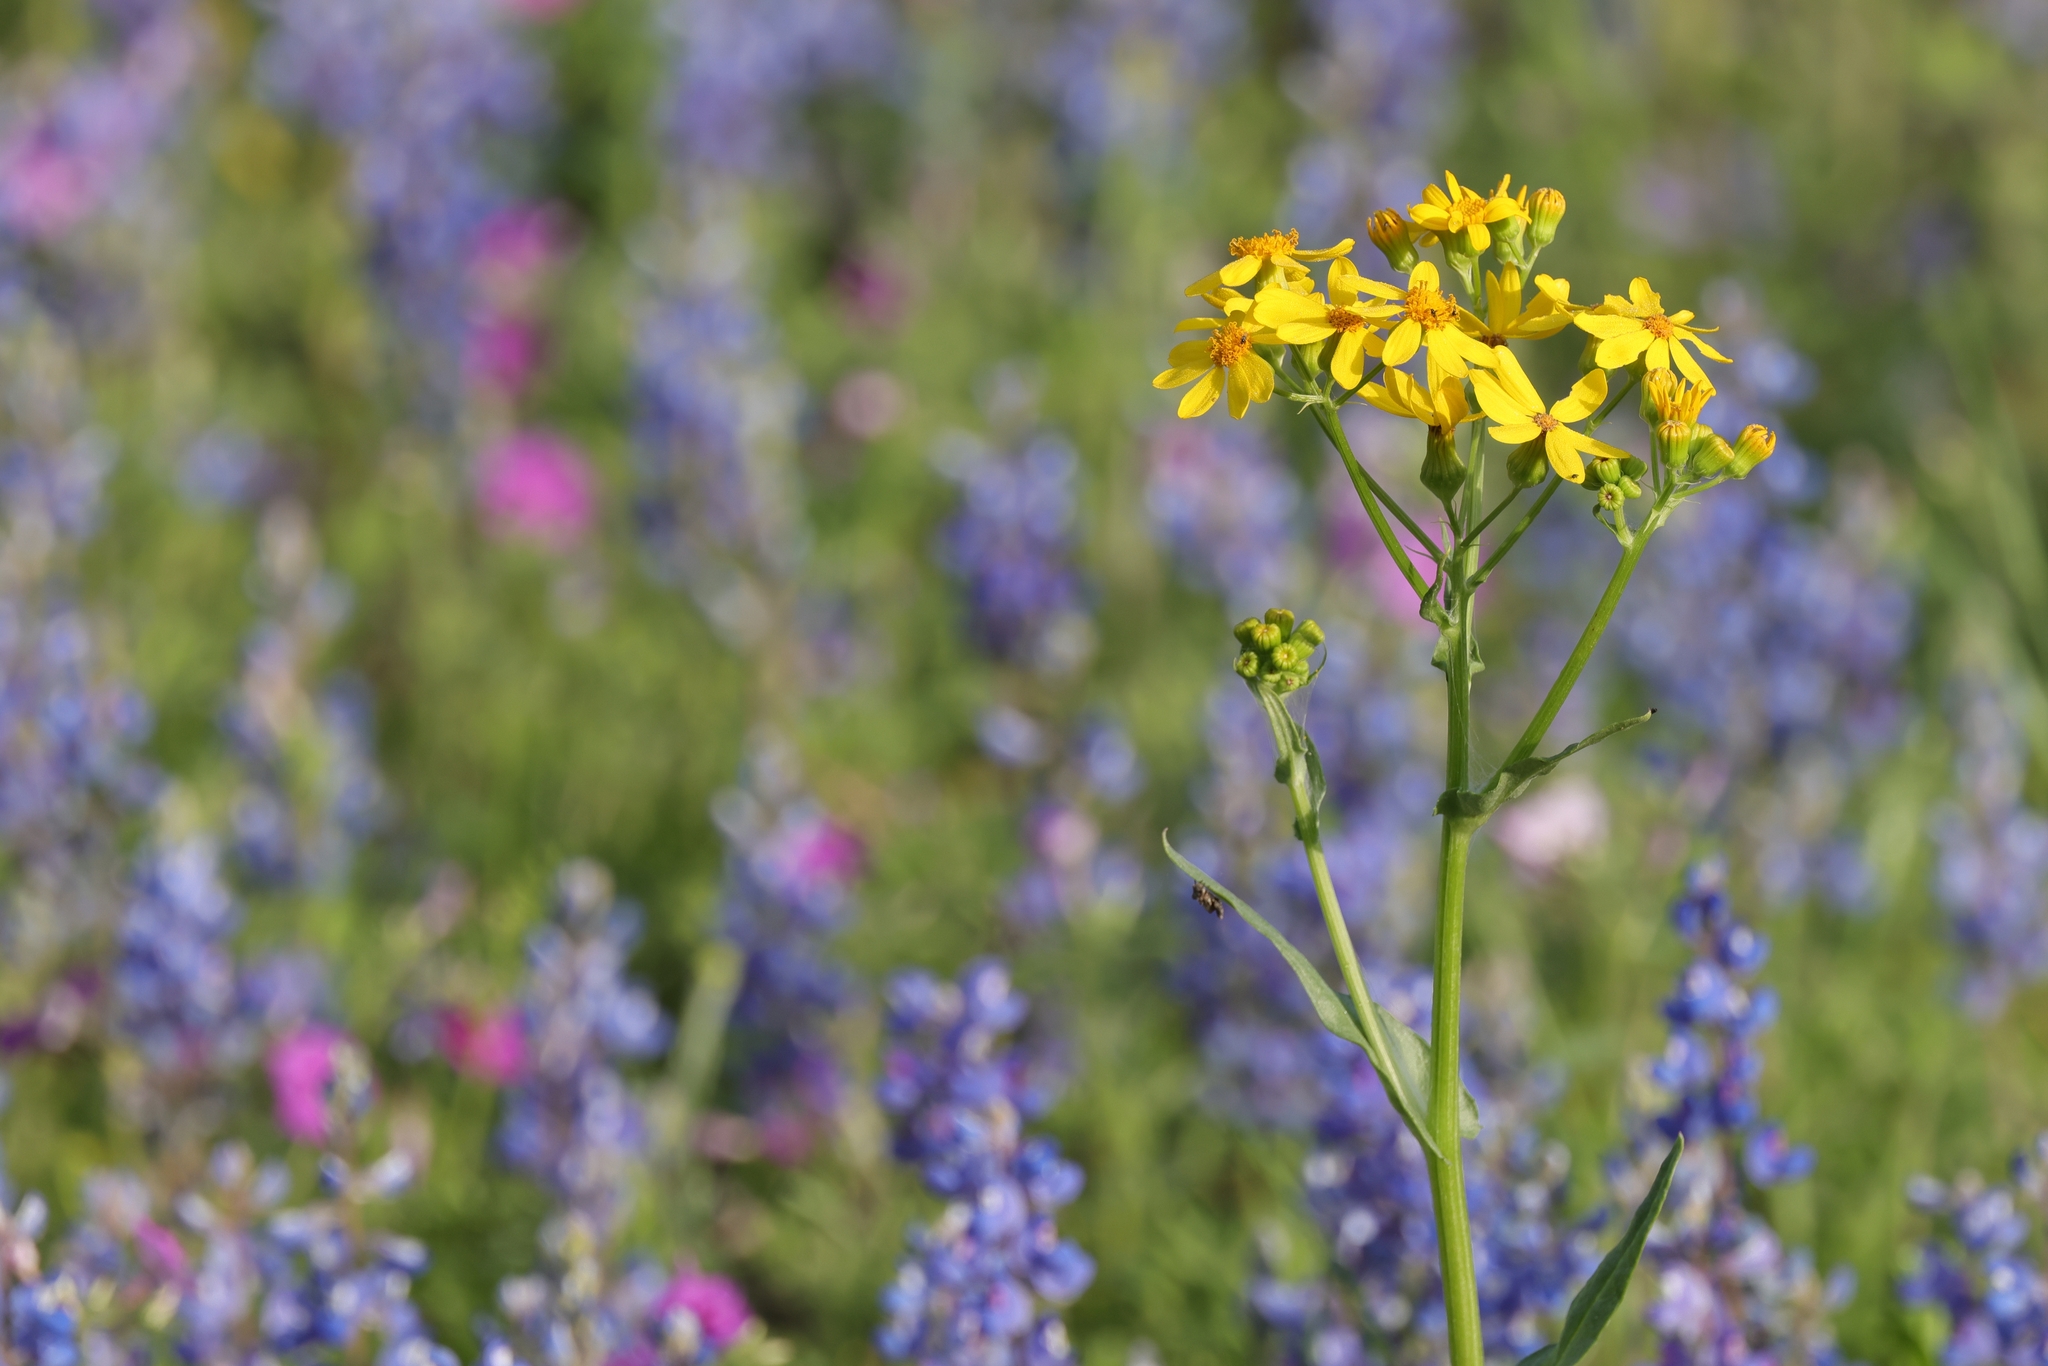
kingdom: Plantae
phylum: Tracheophyta
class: Magnoliopsida
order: Asterales
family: Asteraceae
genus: Senecio
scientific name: Senecio ampullaceus
